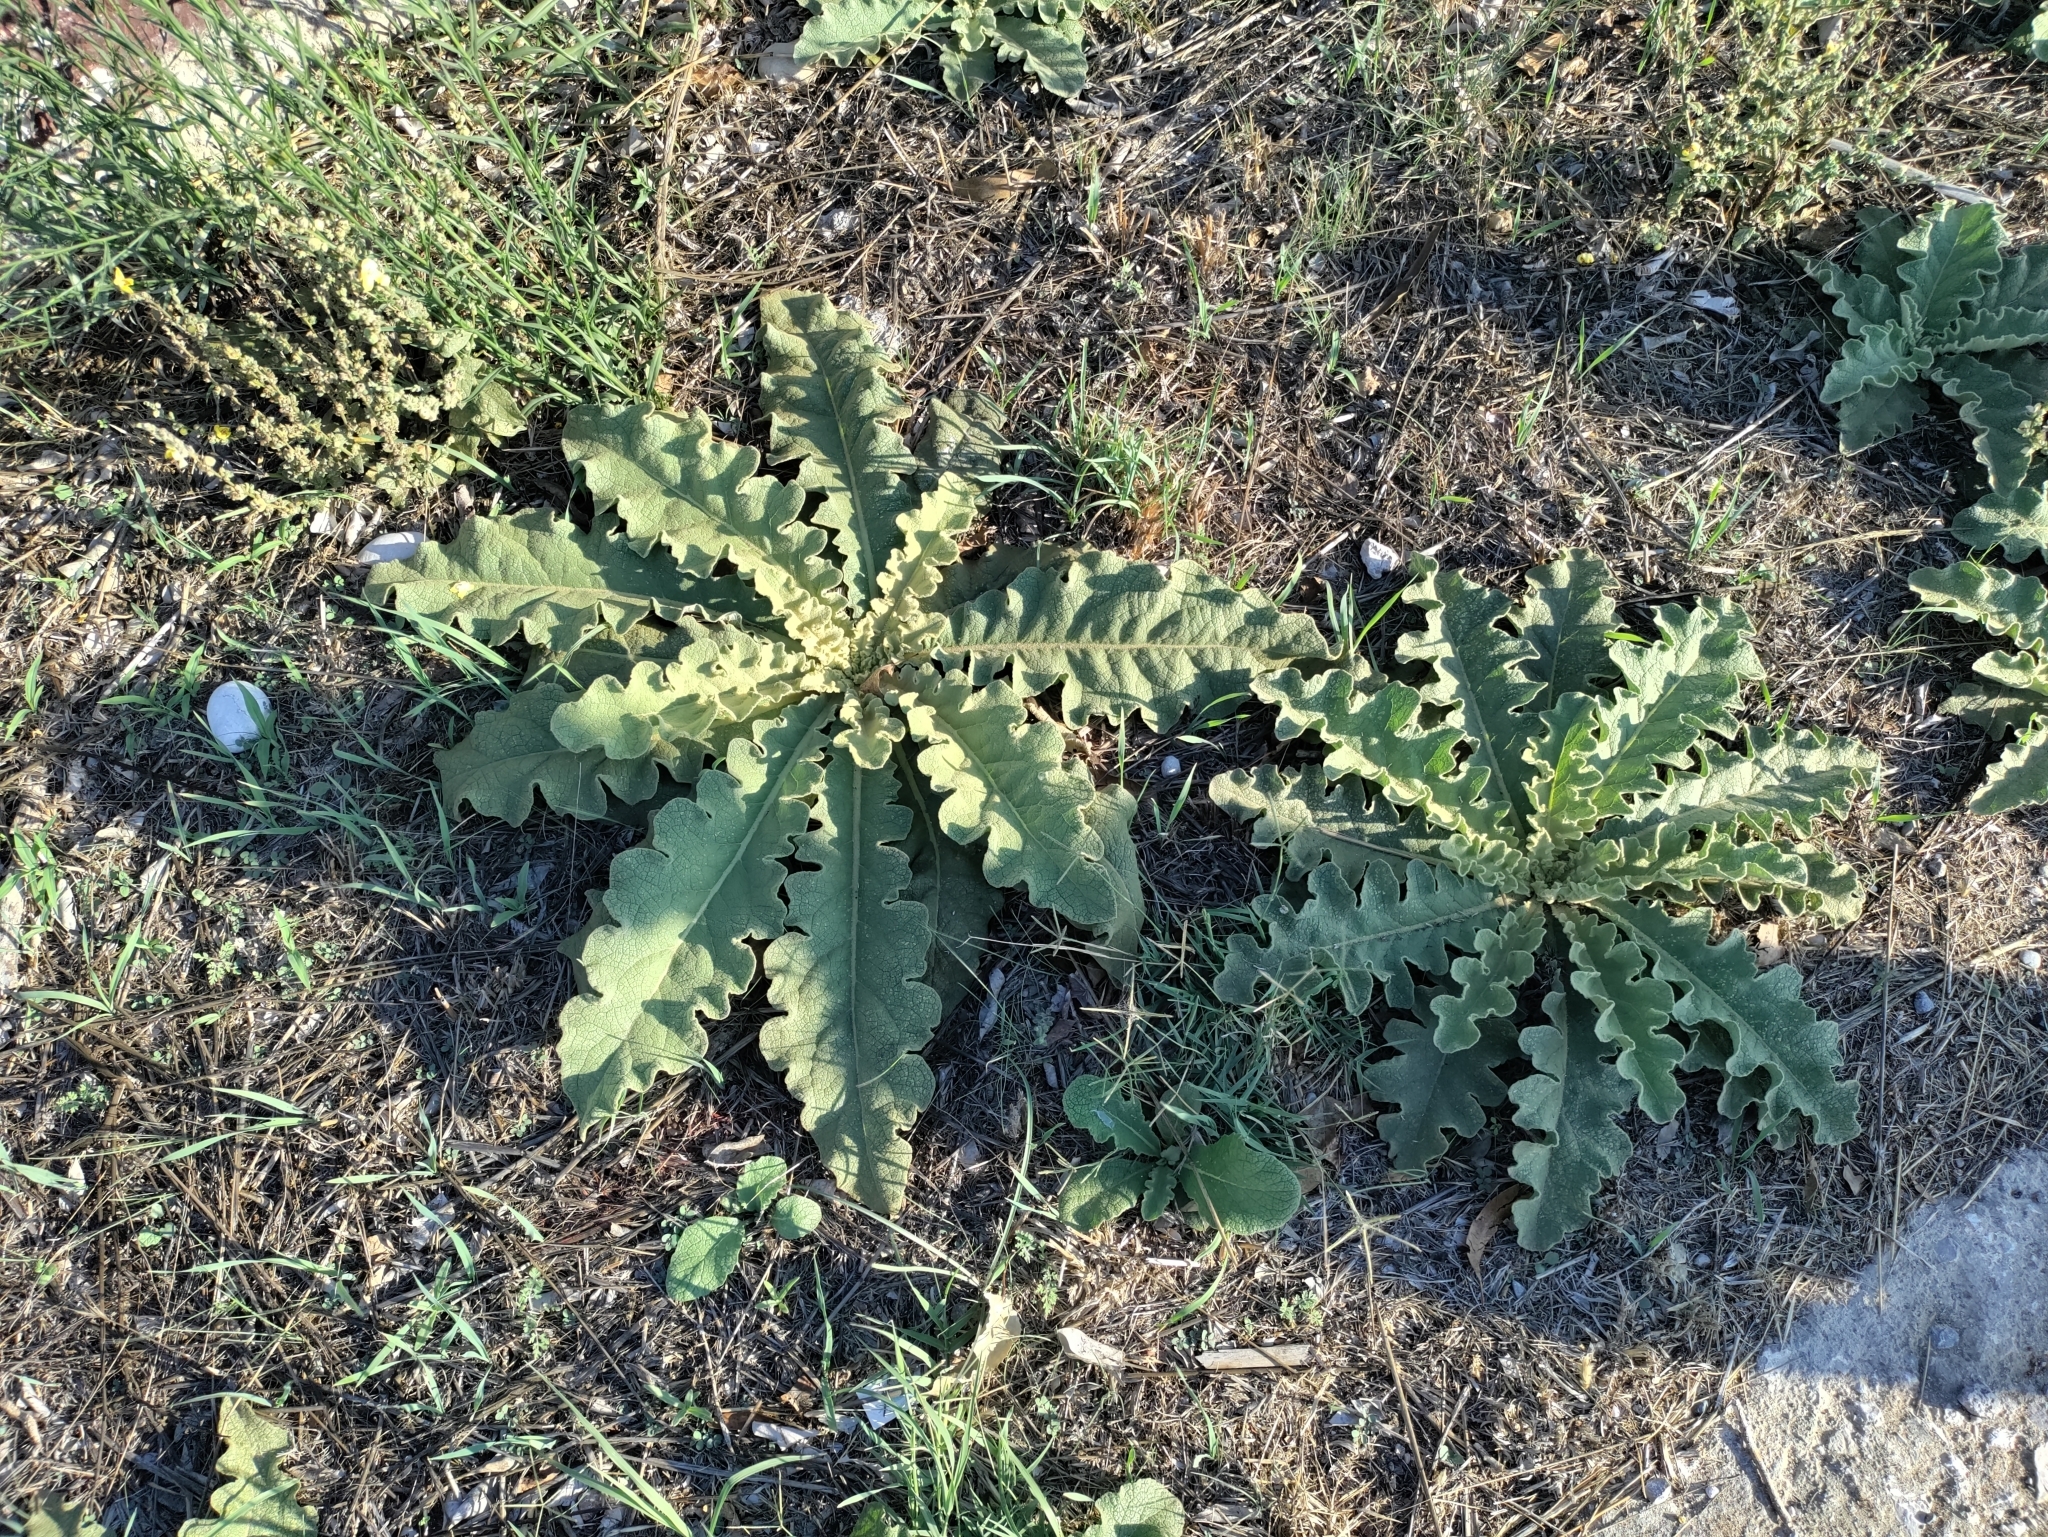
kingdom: Plantae
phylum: Tracheophyta
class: Magnoliopsida
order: Lamiales
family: Scrophulariaceae
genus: Verbascum
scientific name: Verbascum sinuatum
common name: Wavyleaf mullein
